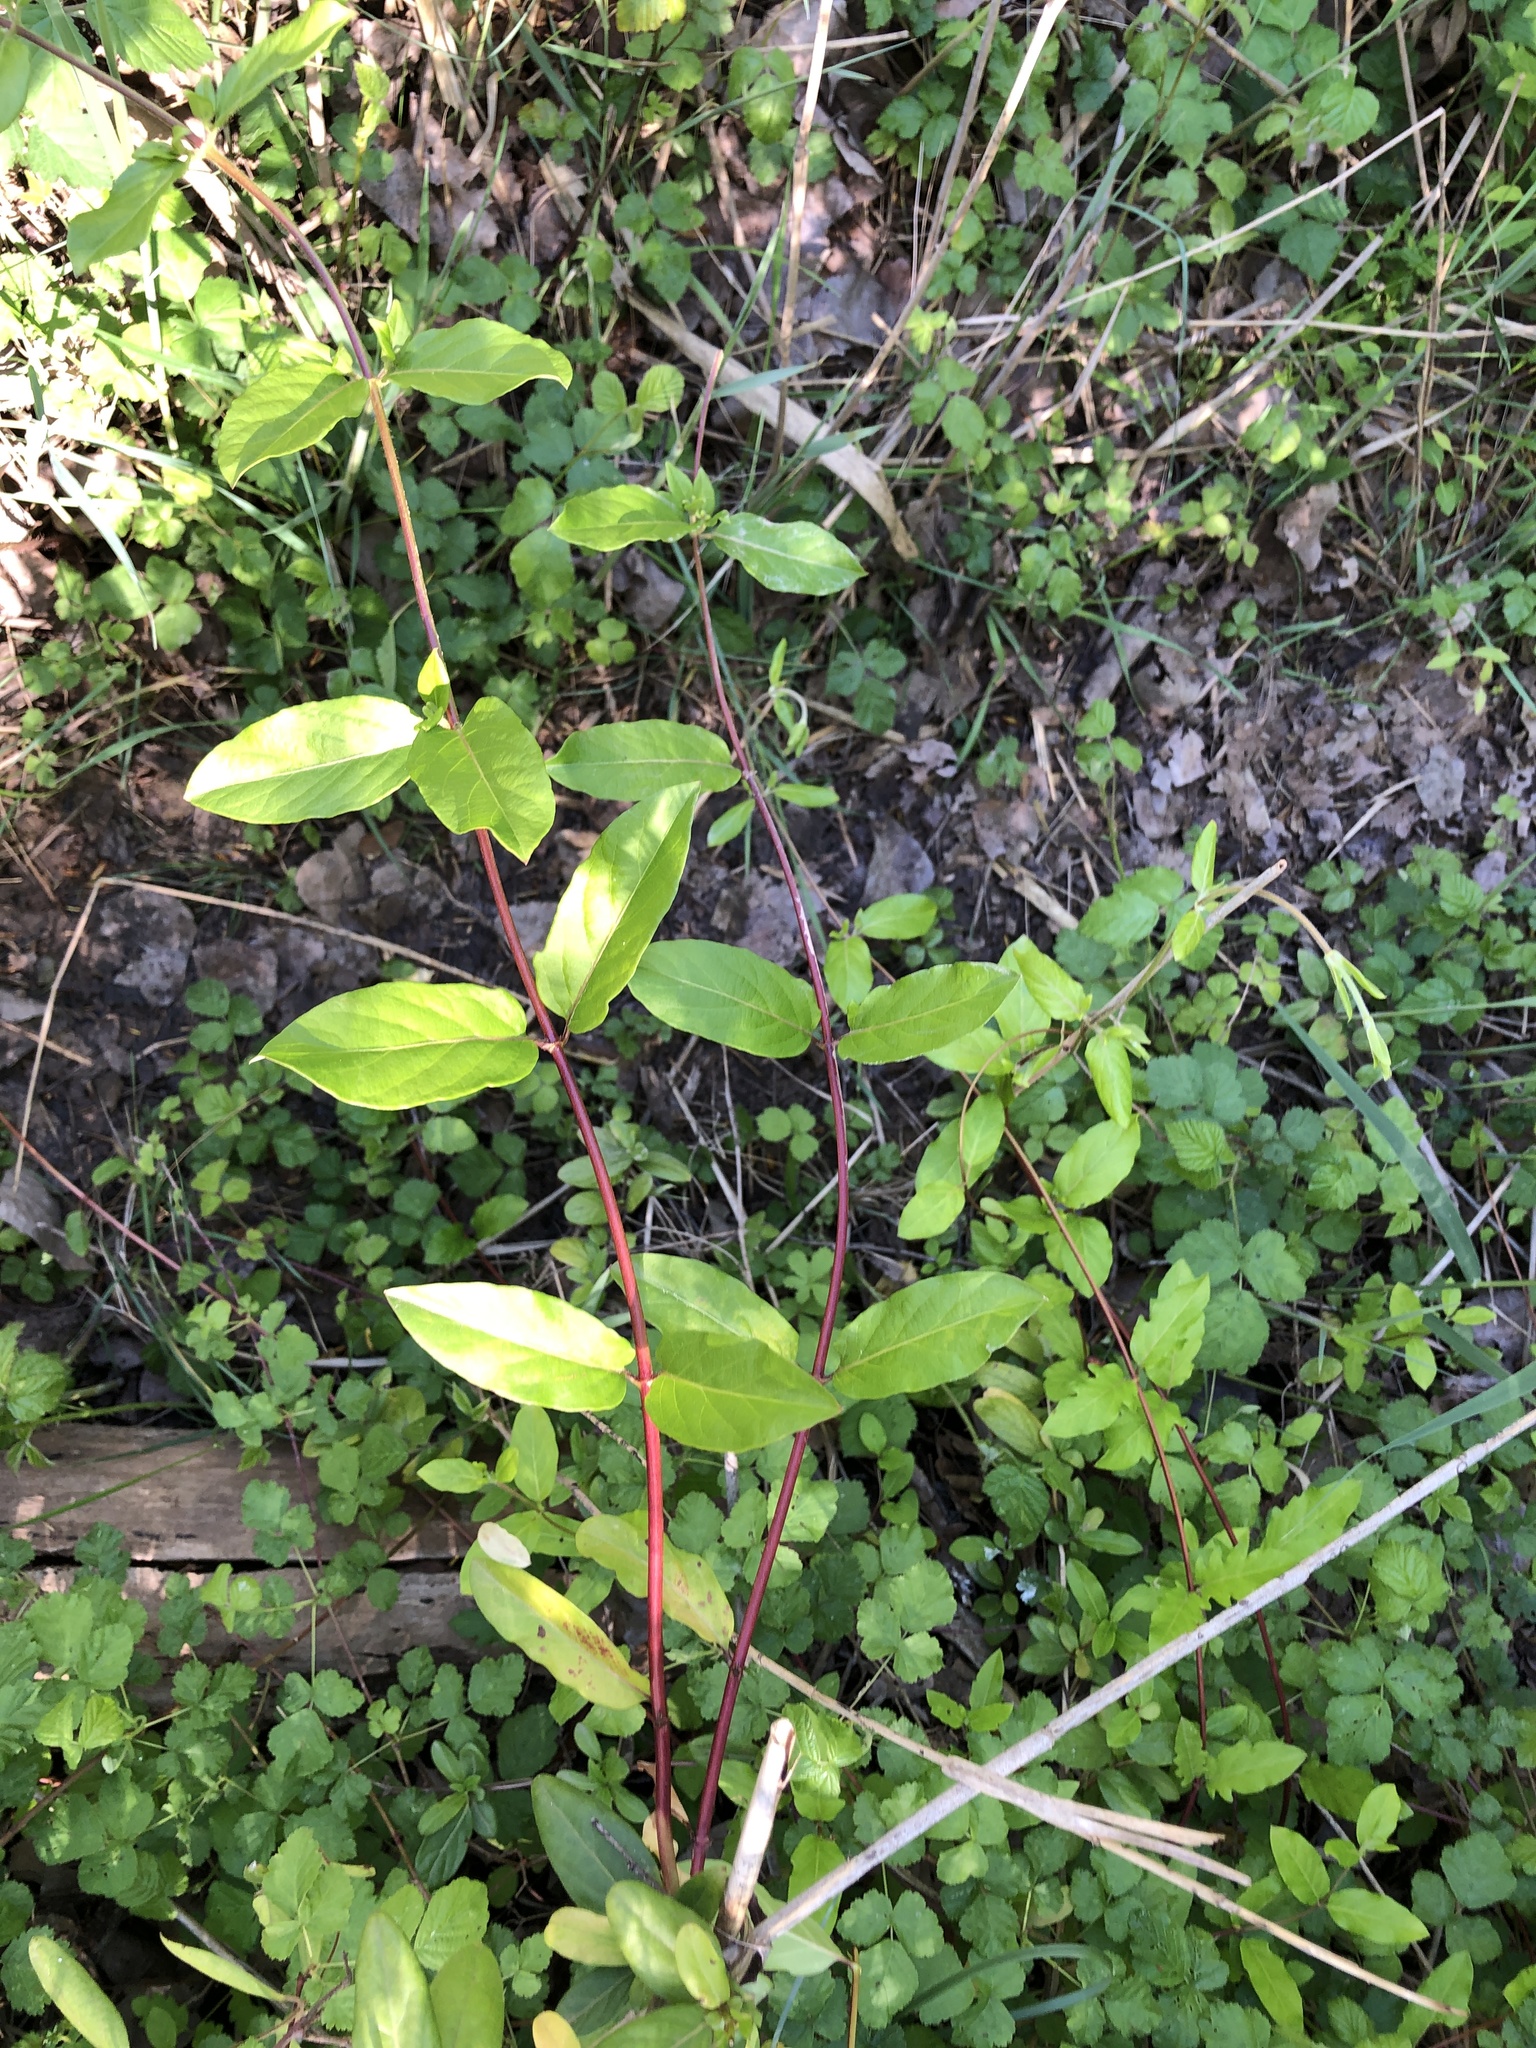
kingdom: Plantae
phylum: Tracheophyta
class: Magnoliopsida
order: Dipsacales
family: Caprifoliaceae
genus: Lonicera
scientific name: Lonicera japonica
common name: Japanese honeysuckle
